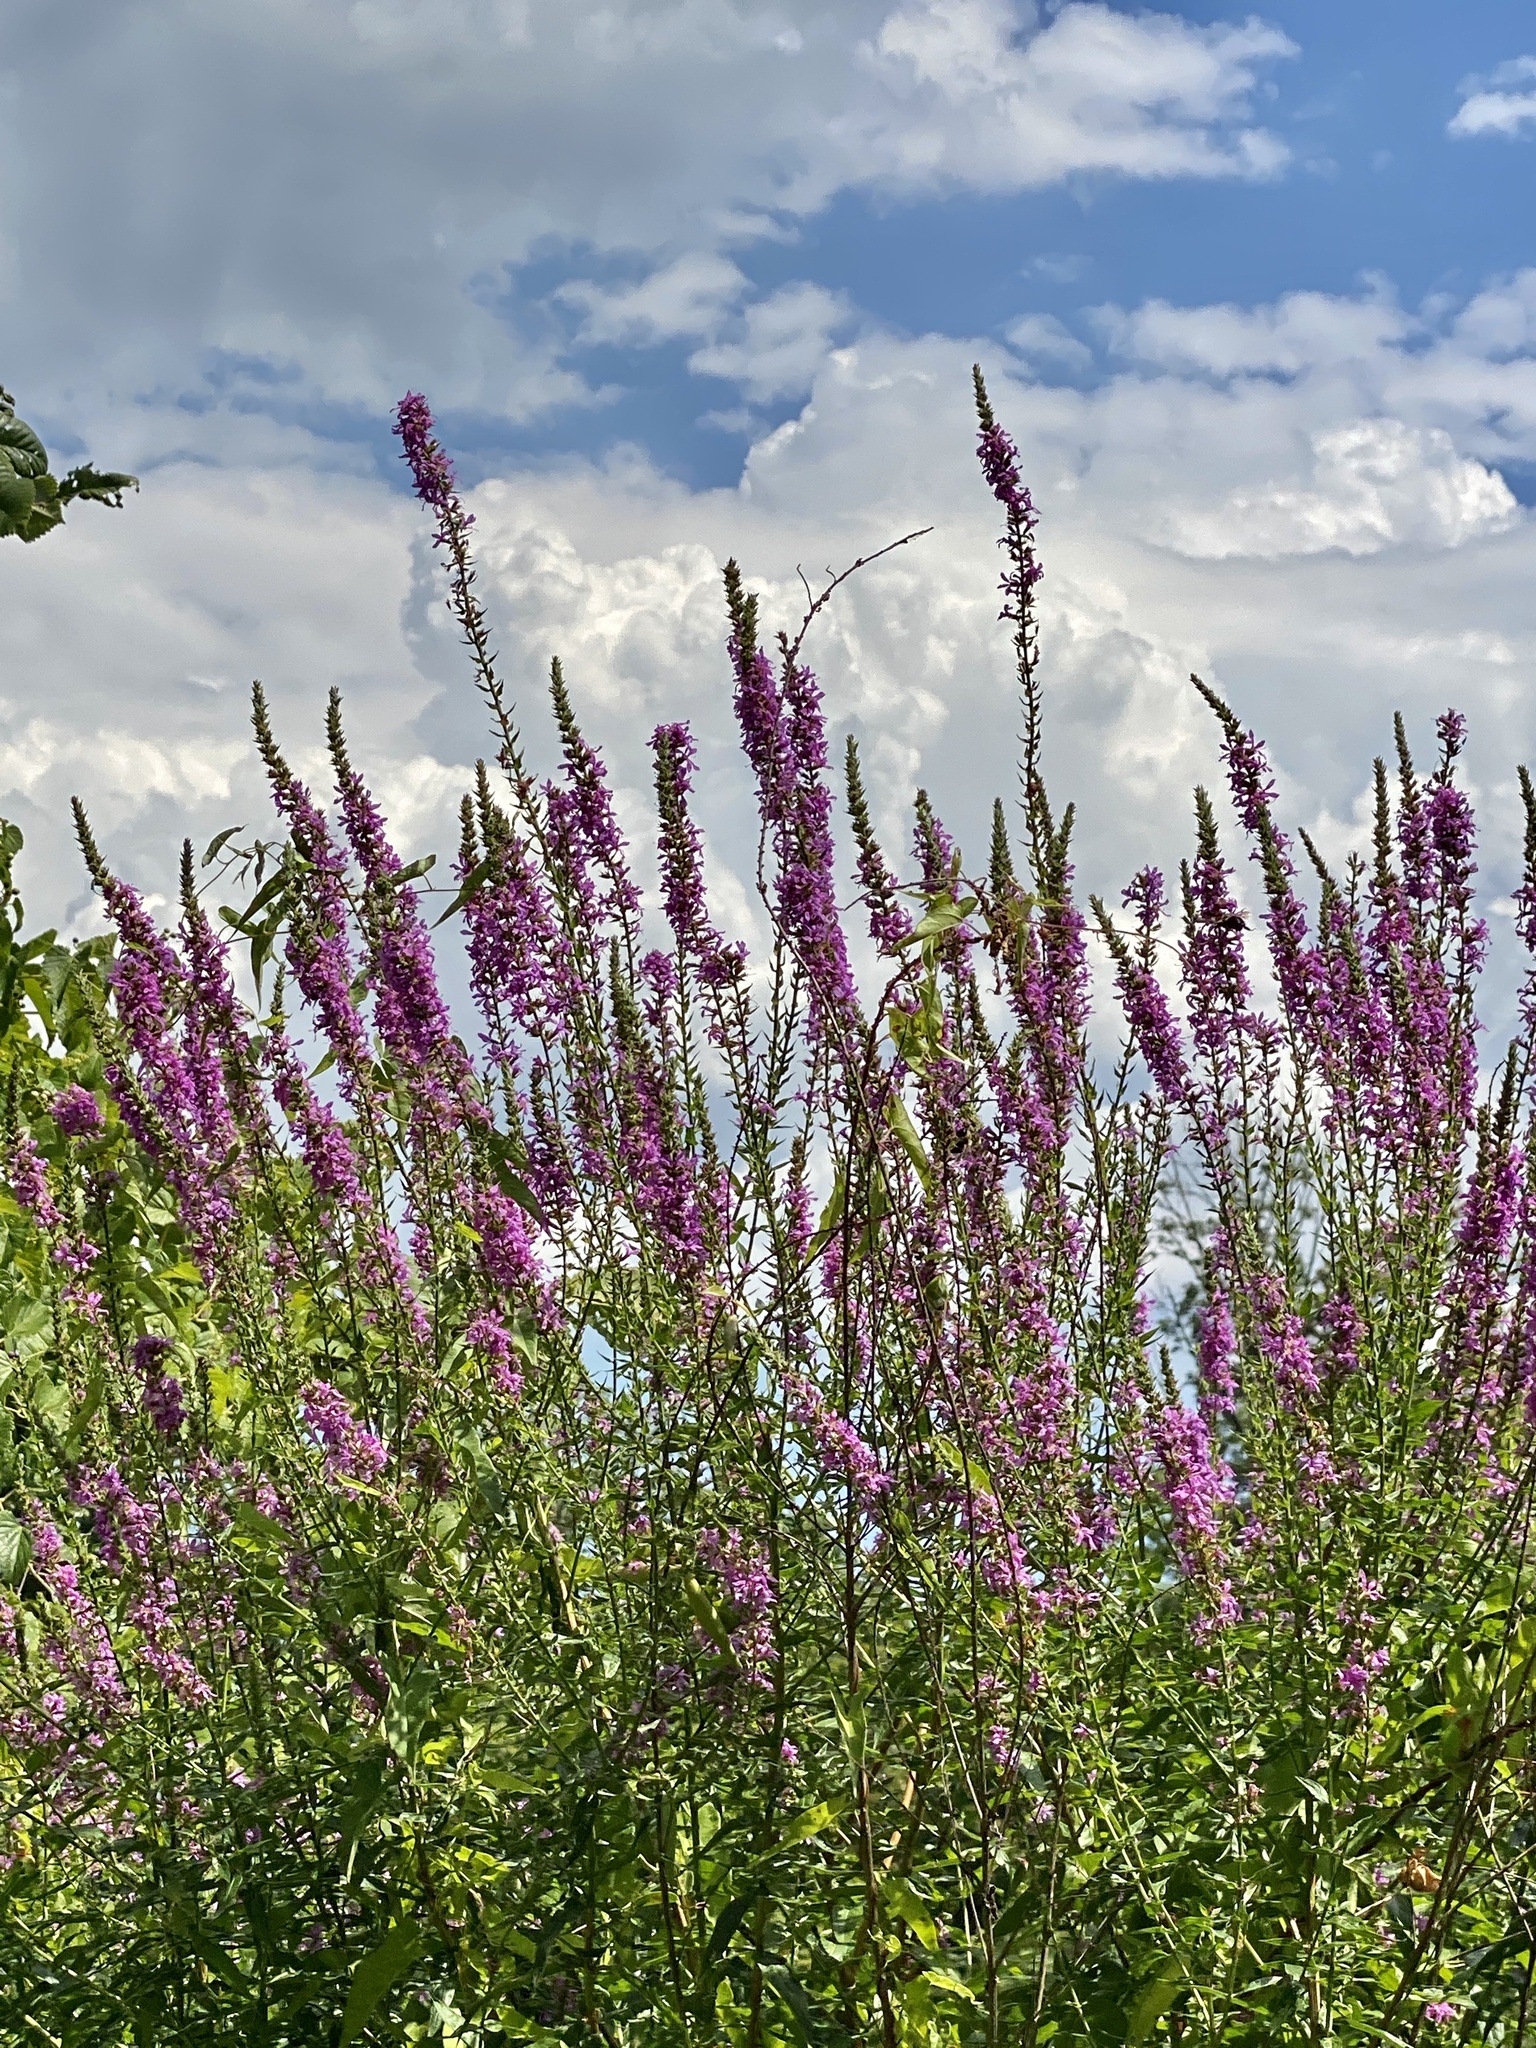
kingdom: Plantae
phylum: Tracheophyta
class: Magnoliopsida
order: Myrtales
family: Lythraceae
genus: Lythrum
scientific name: Lythrum salicaria
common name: Purple loosestrife
